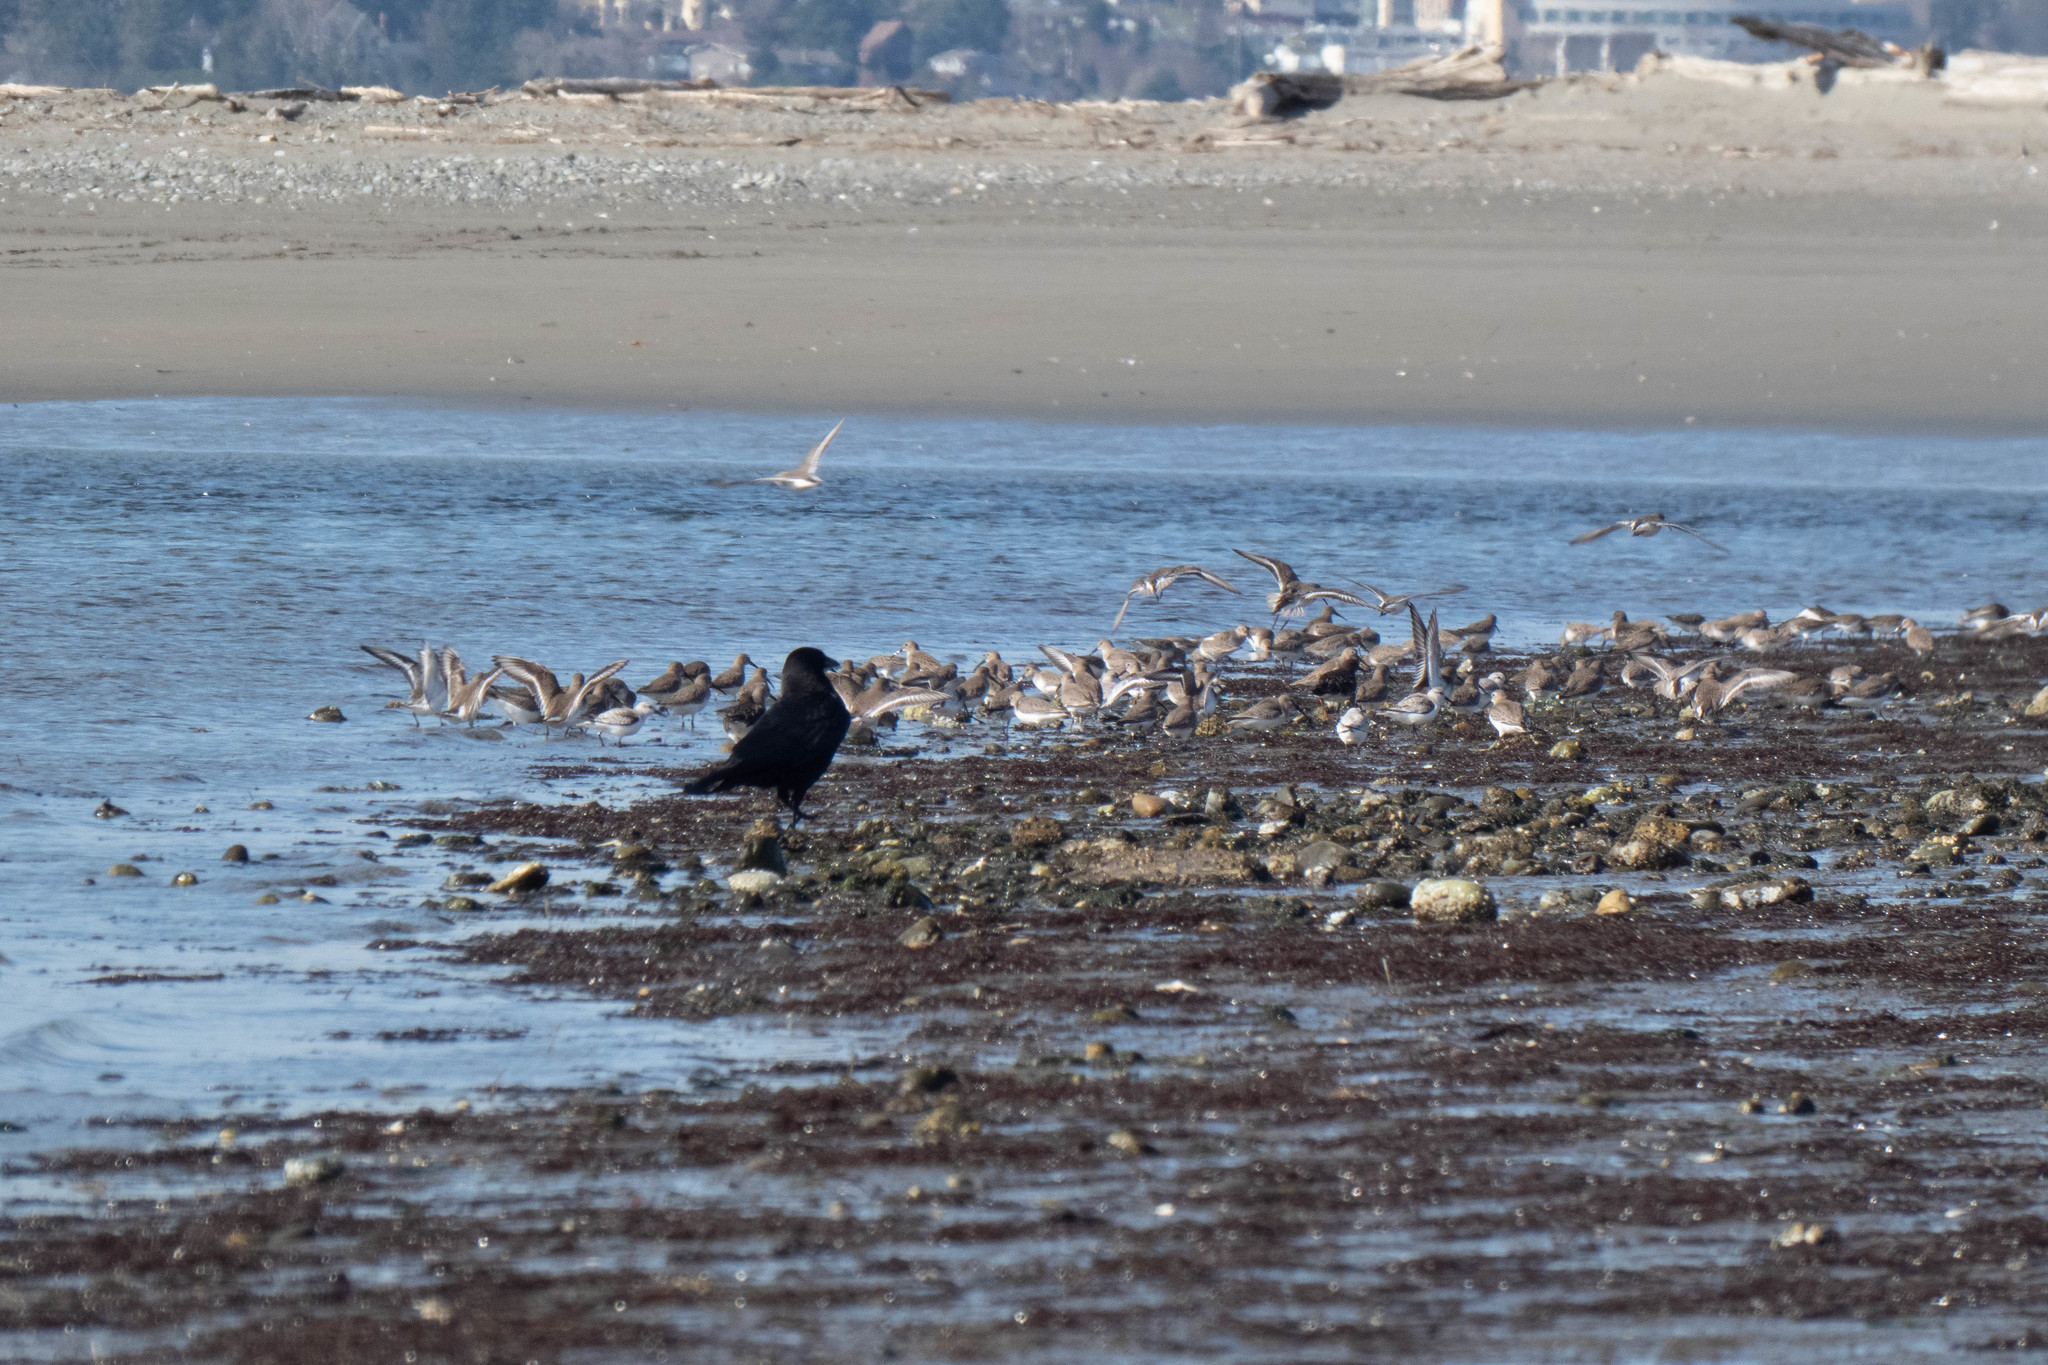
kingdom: Animalia
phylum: Chordata
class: Aves
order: Passeriformes
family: Corvidae
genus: Corvus
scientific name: Corvus brachyrhynchos
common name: American crow
